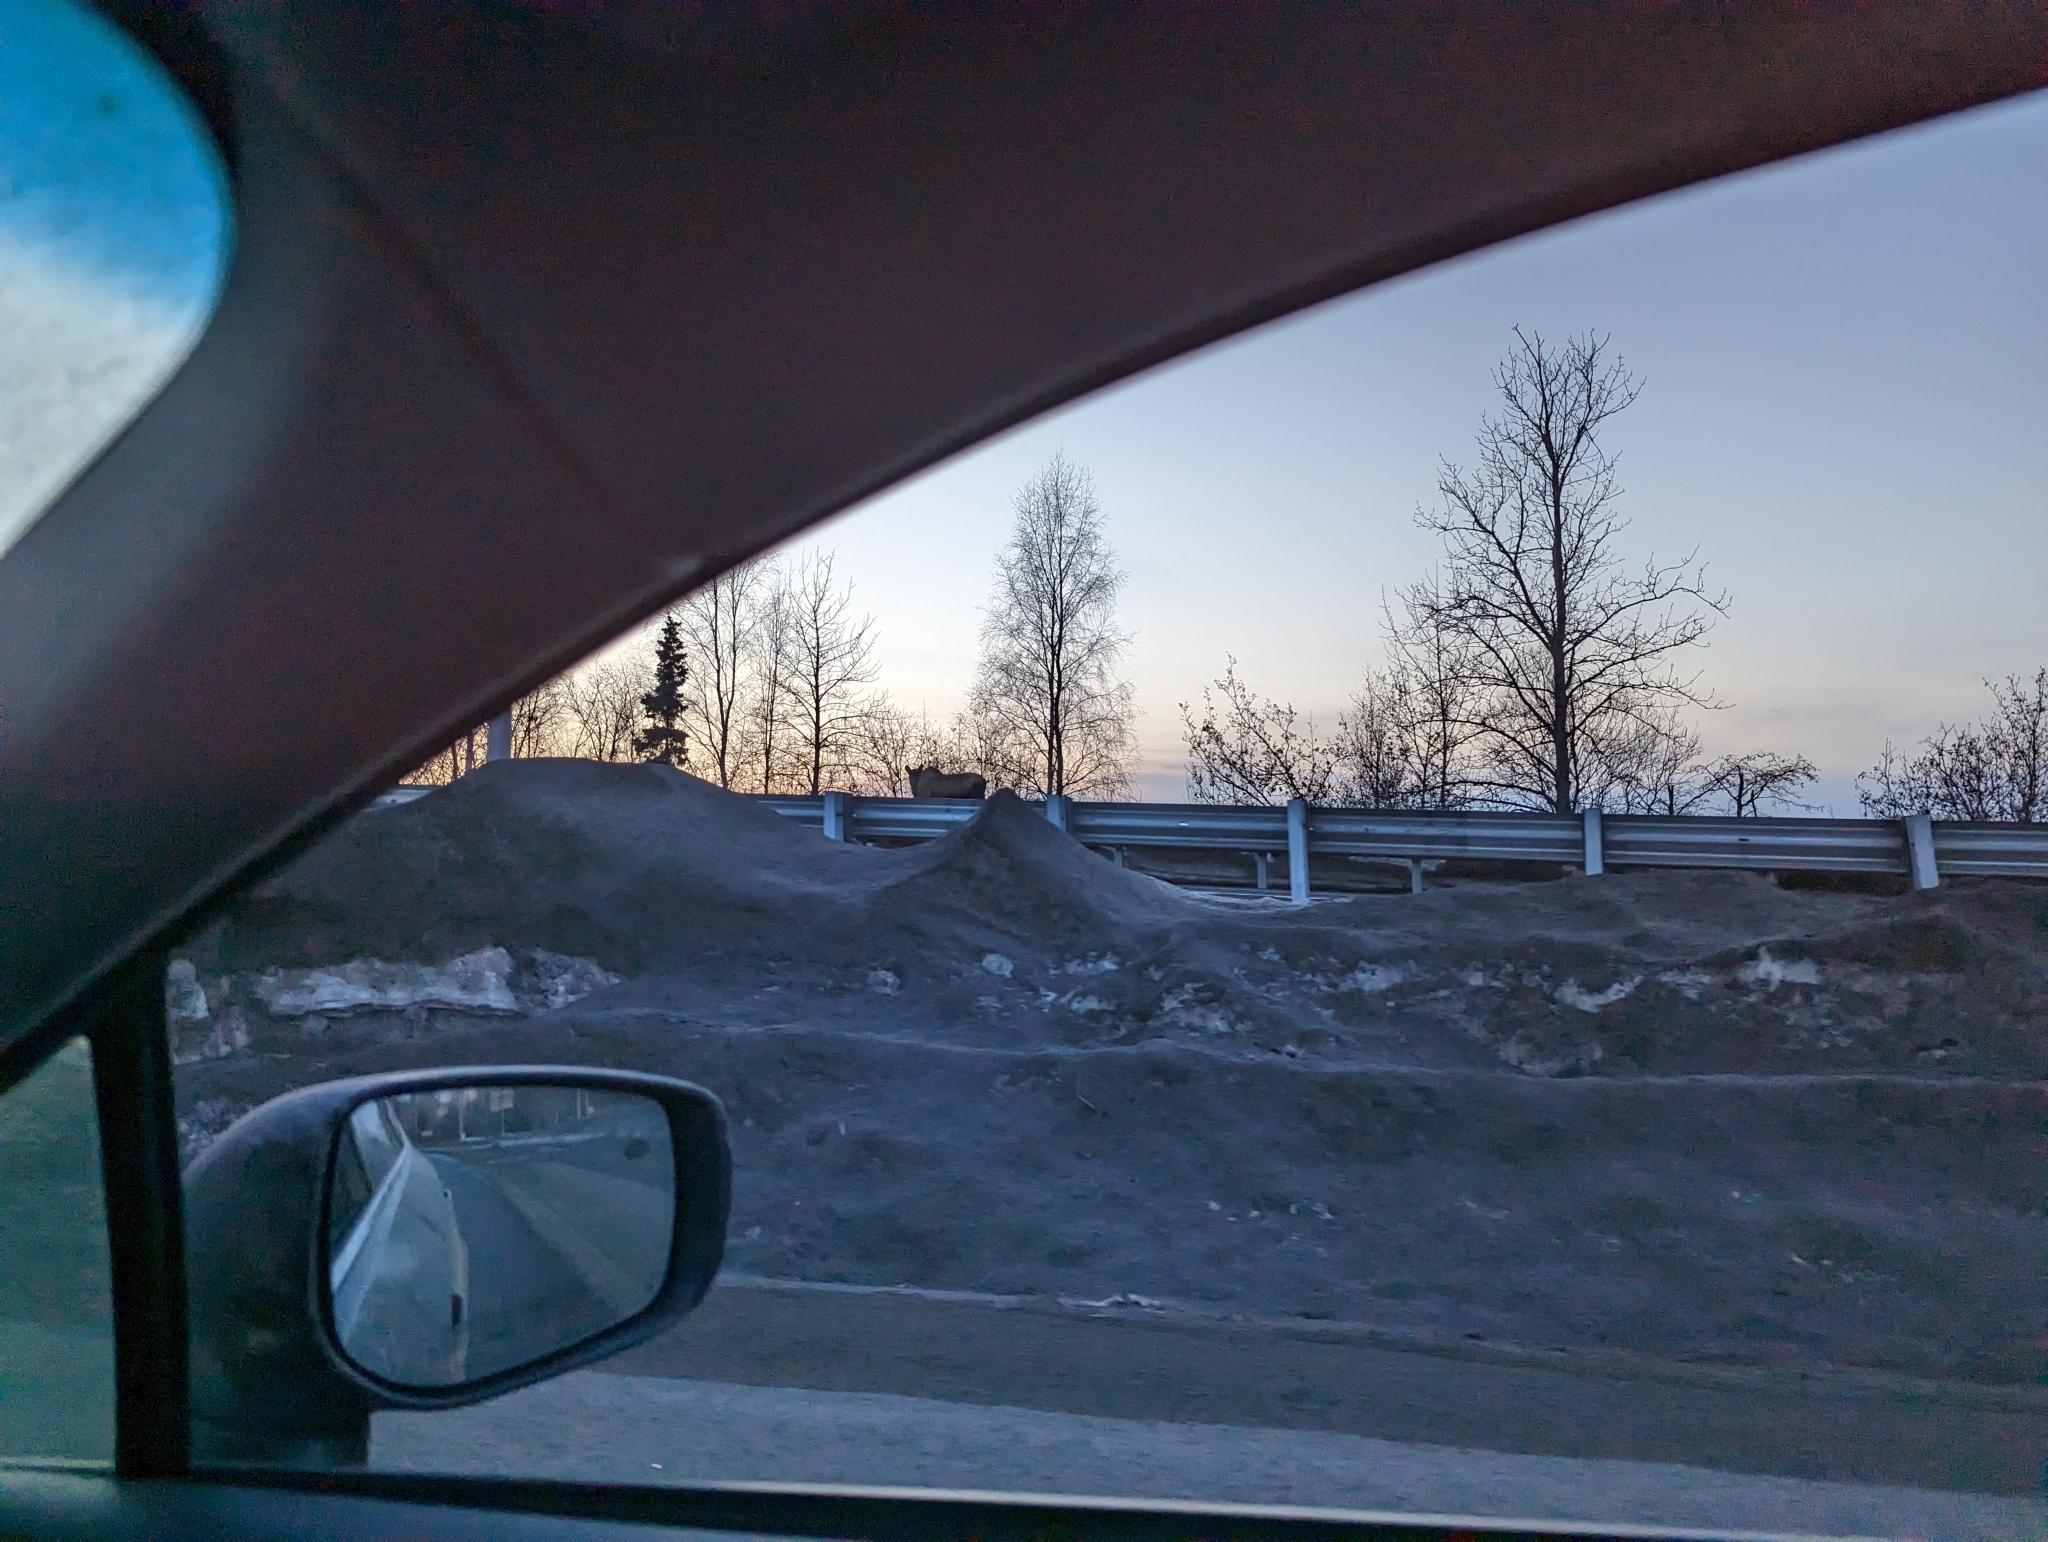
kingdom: Animalia
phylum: Chordata
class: Mammalia
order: Artiodactyla
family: Cervidae
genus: Alces
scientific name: Alces alces
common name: Moose
